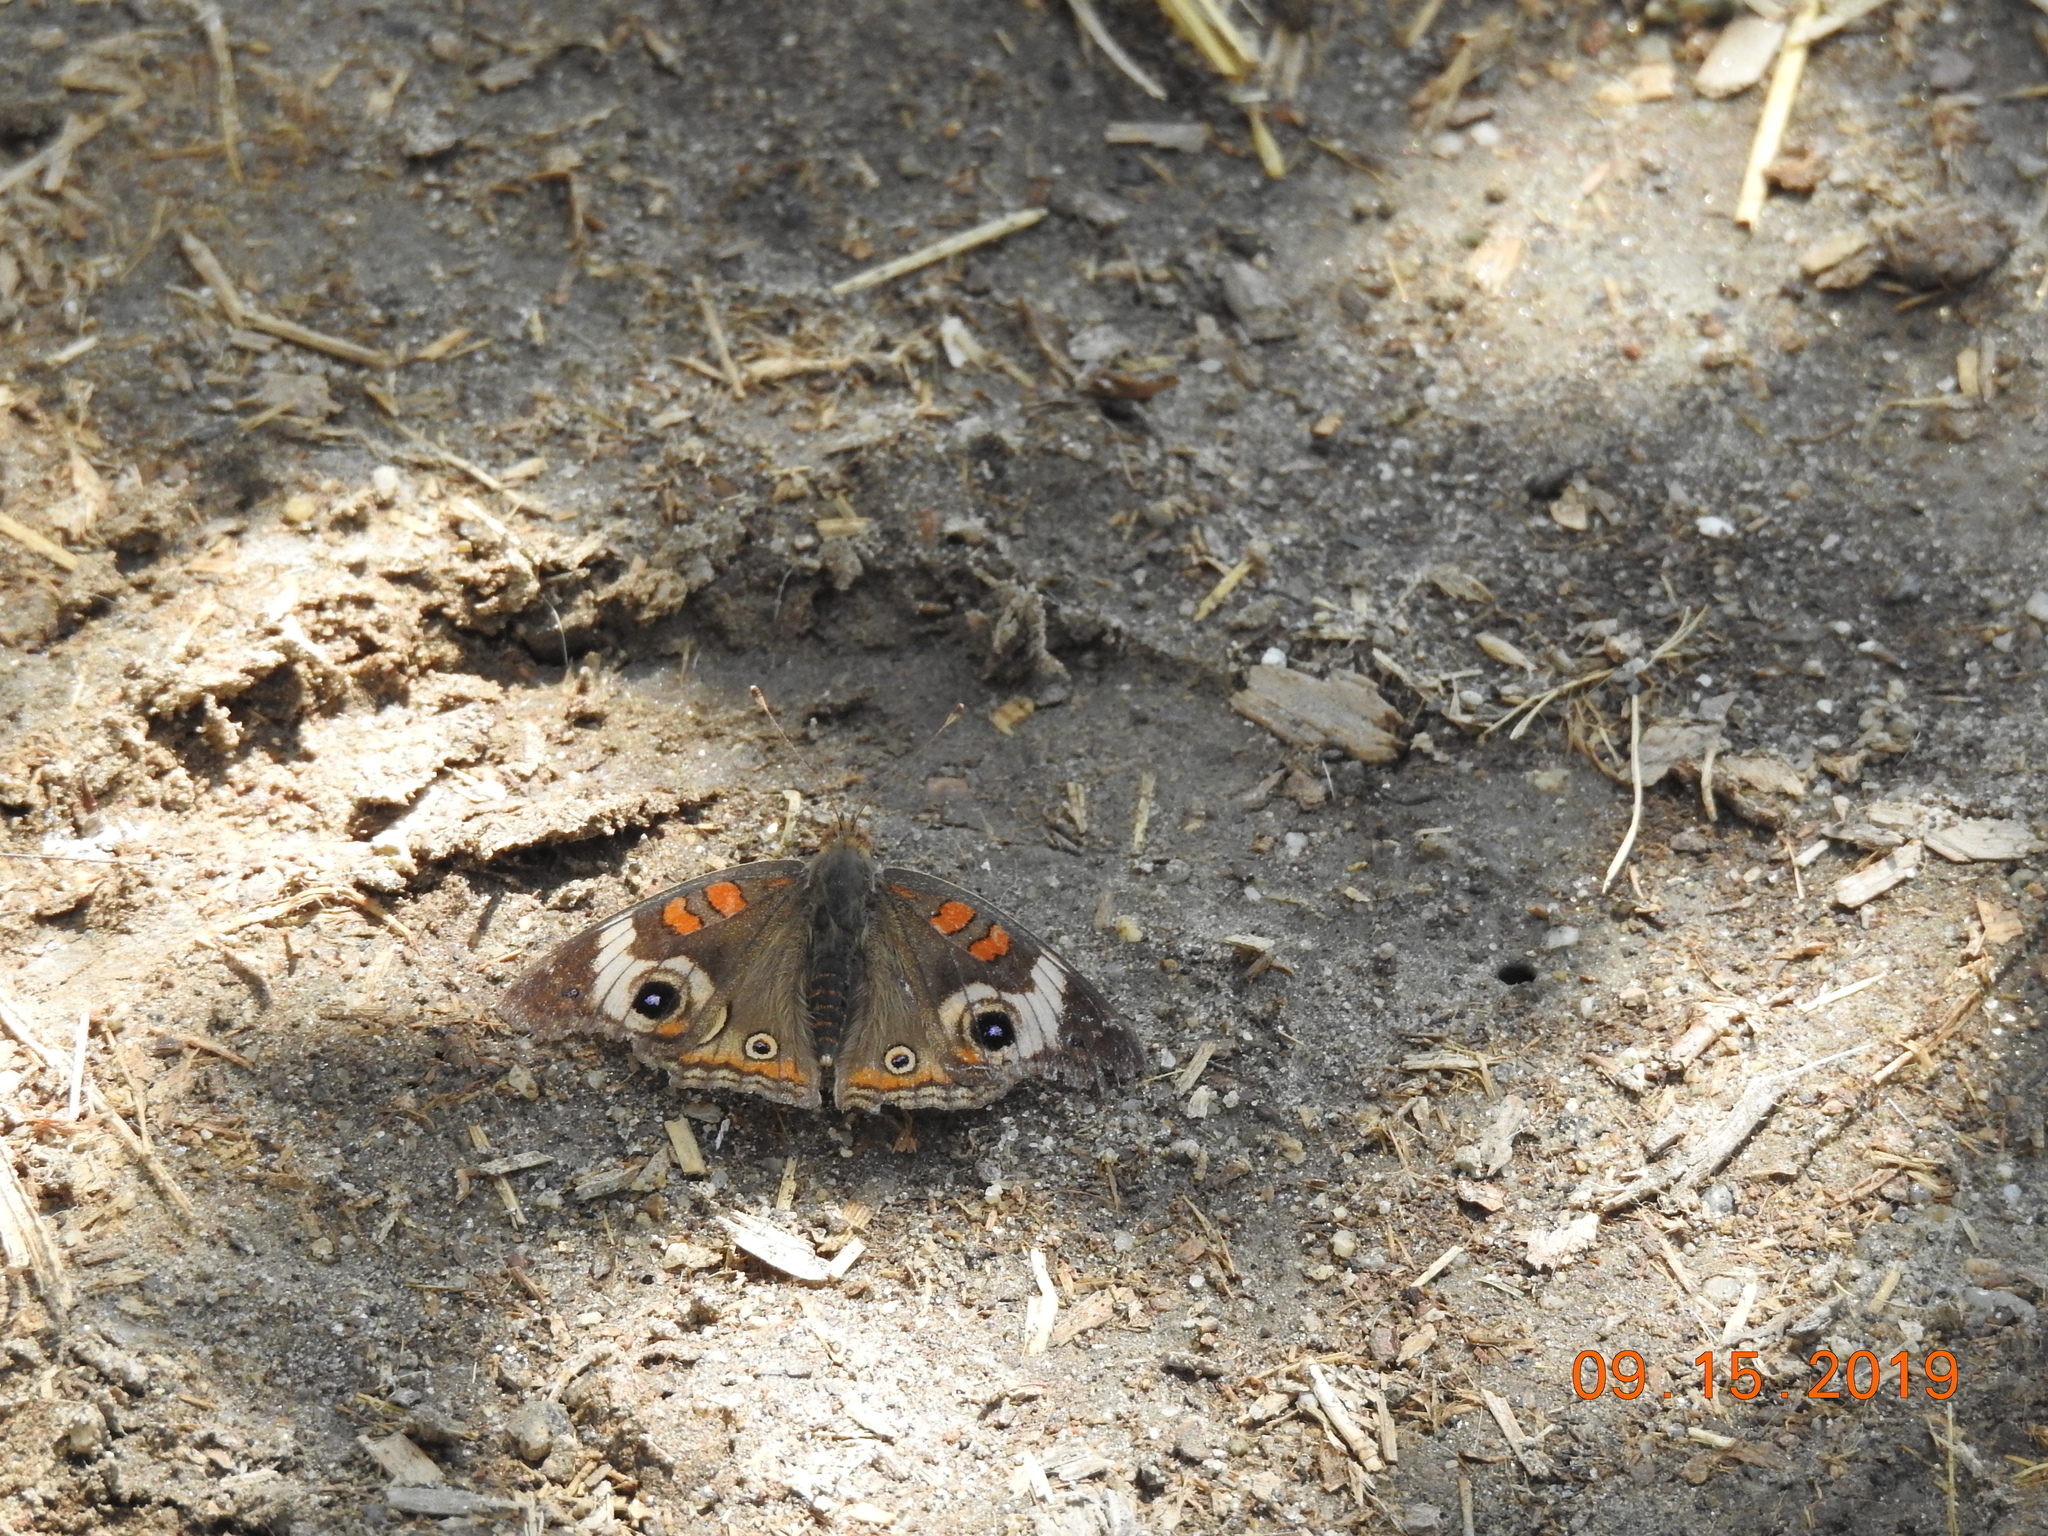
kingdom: Animalia
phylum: Arthropoda
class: Insecta
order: Lepidoptera
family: Nymphalidae
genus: Junonia
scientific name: Junonia grisea
